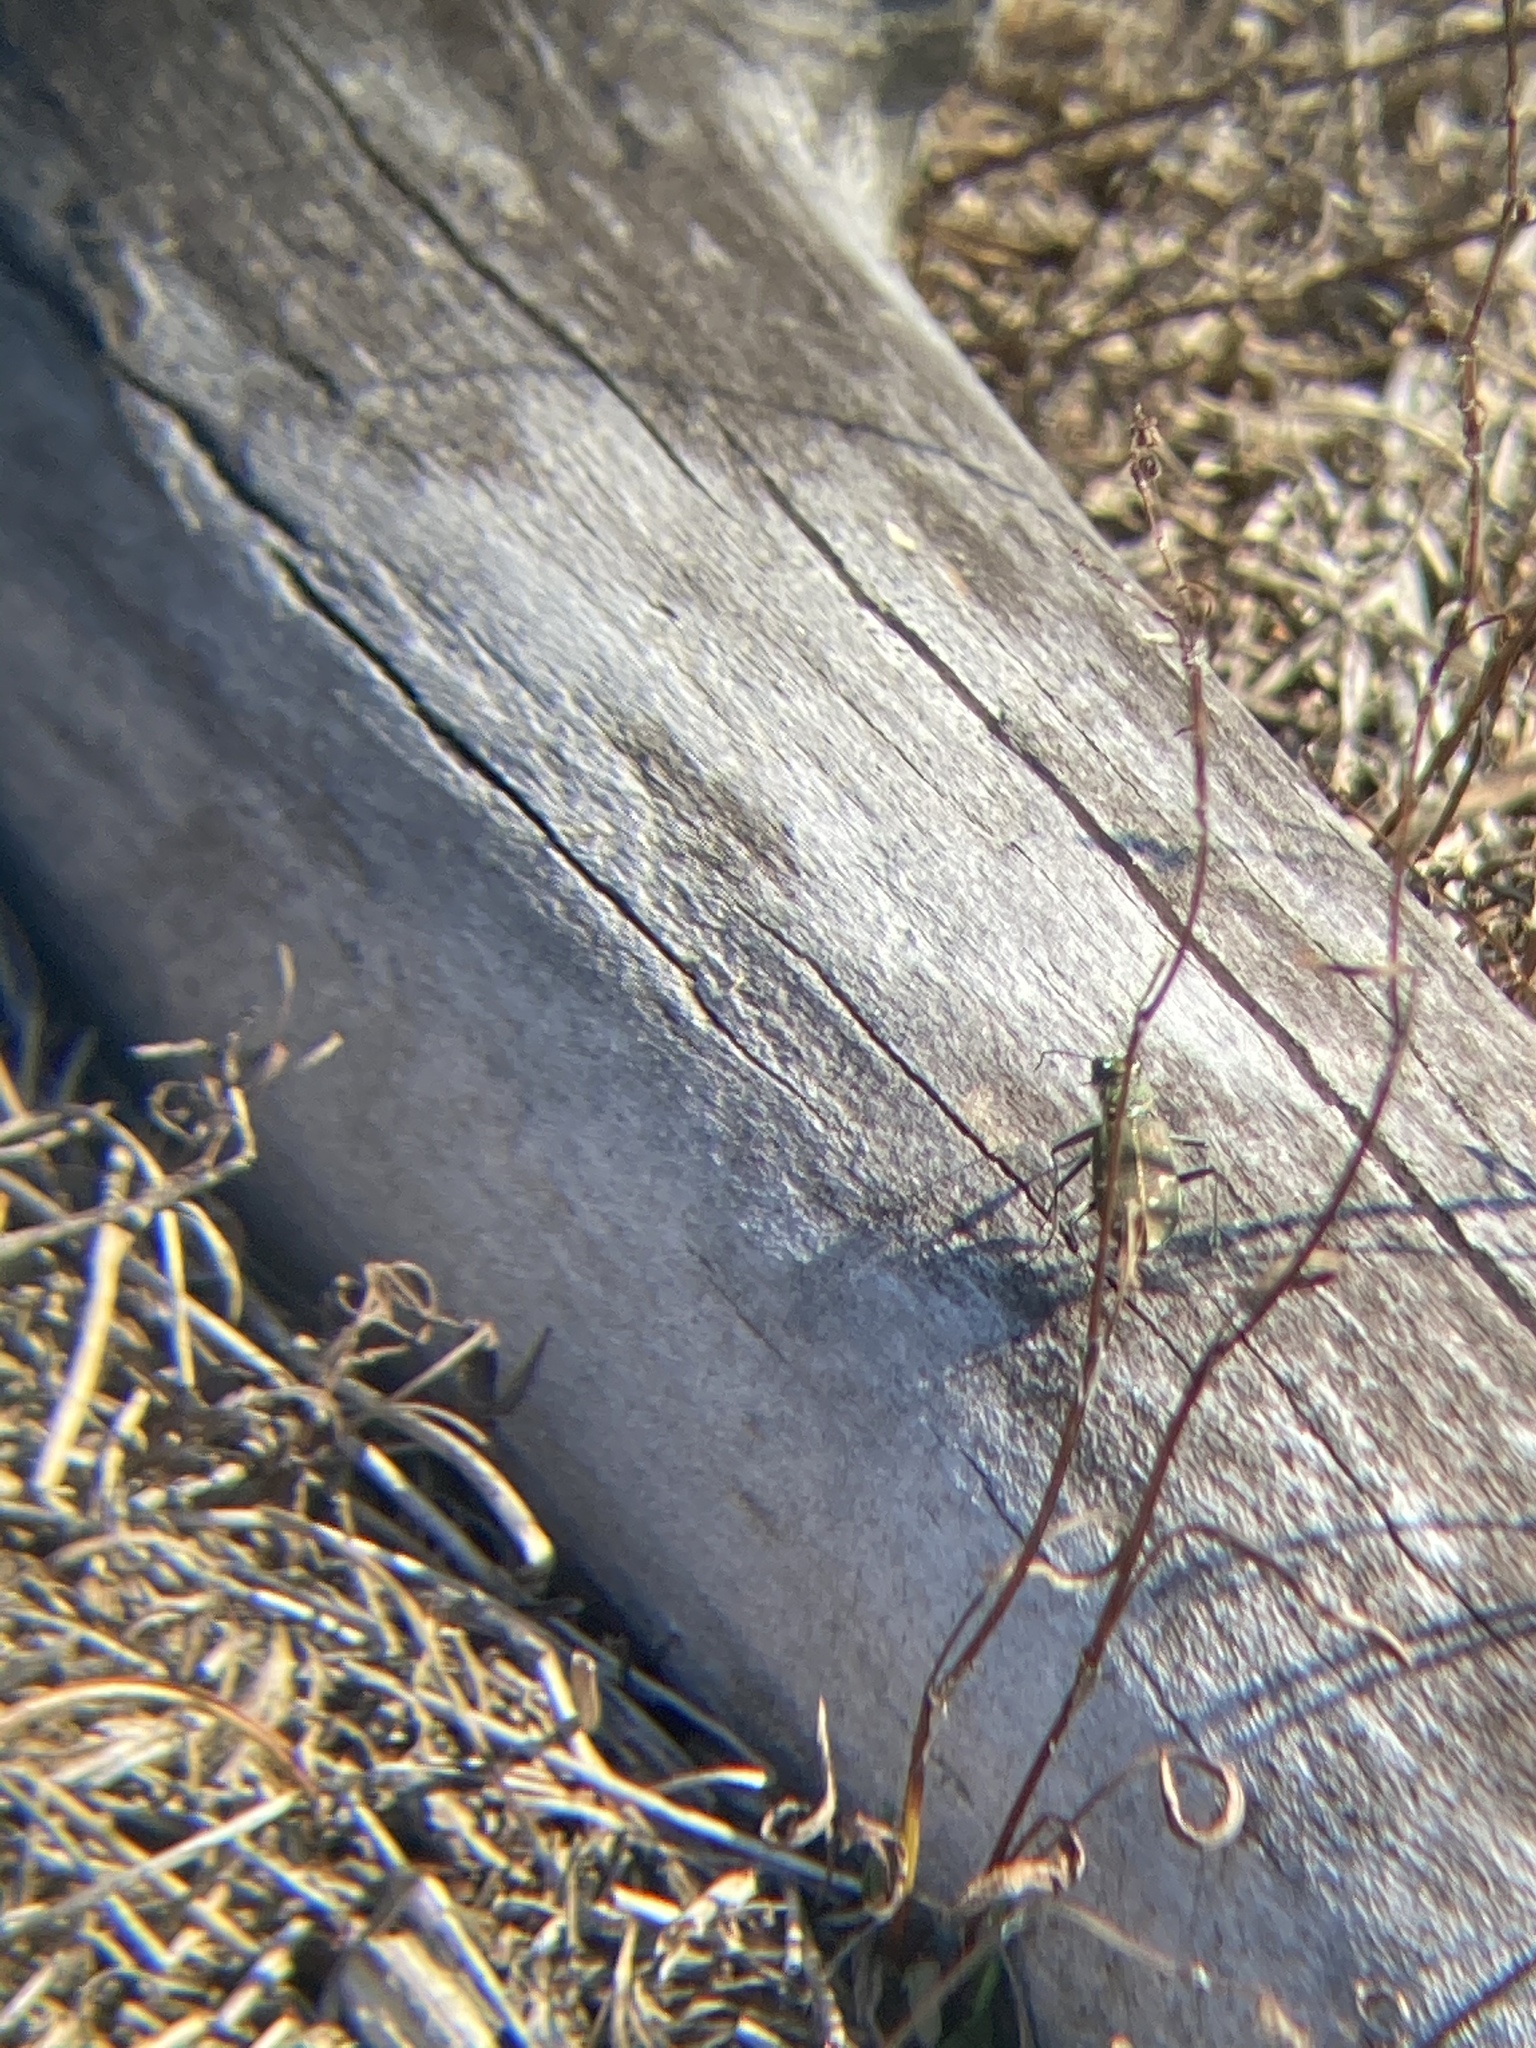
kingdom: Animalia
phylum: Arthropoda
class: Insecta
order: Coleoptera
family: Carabidae
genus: Cicindela
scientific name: Cicindela oregona
